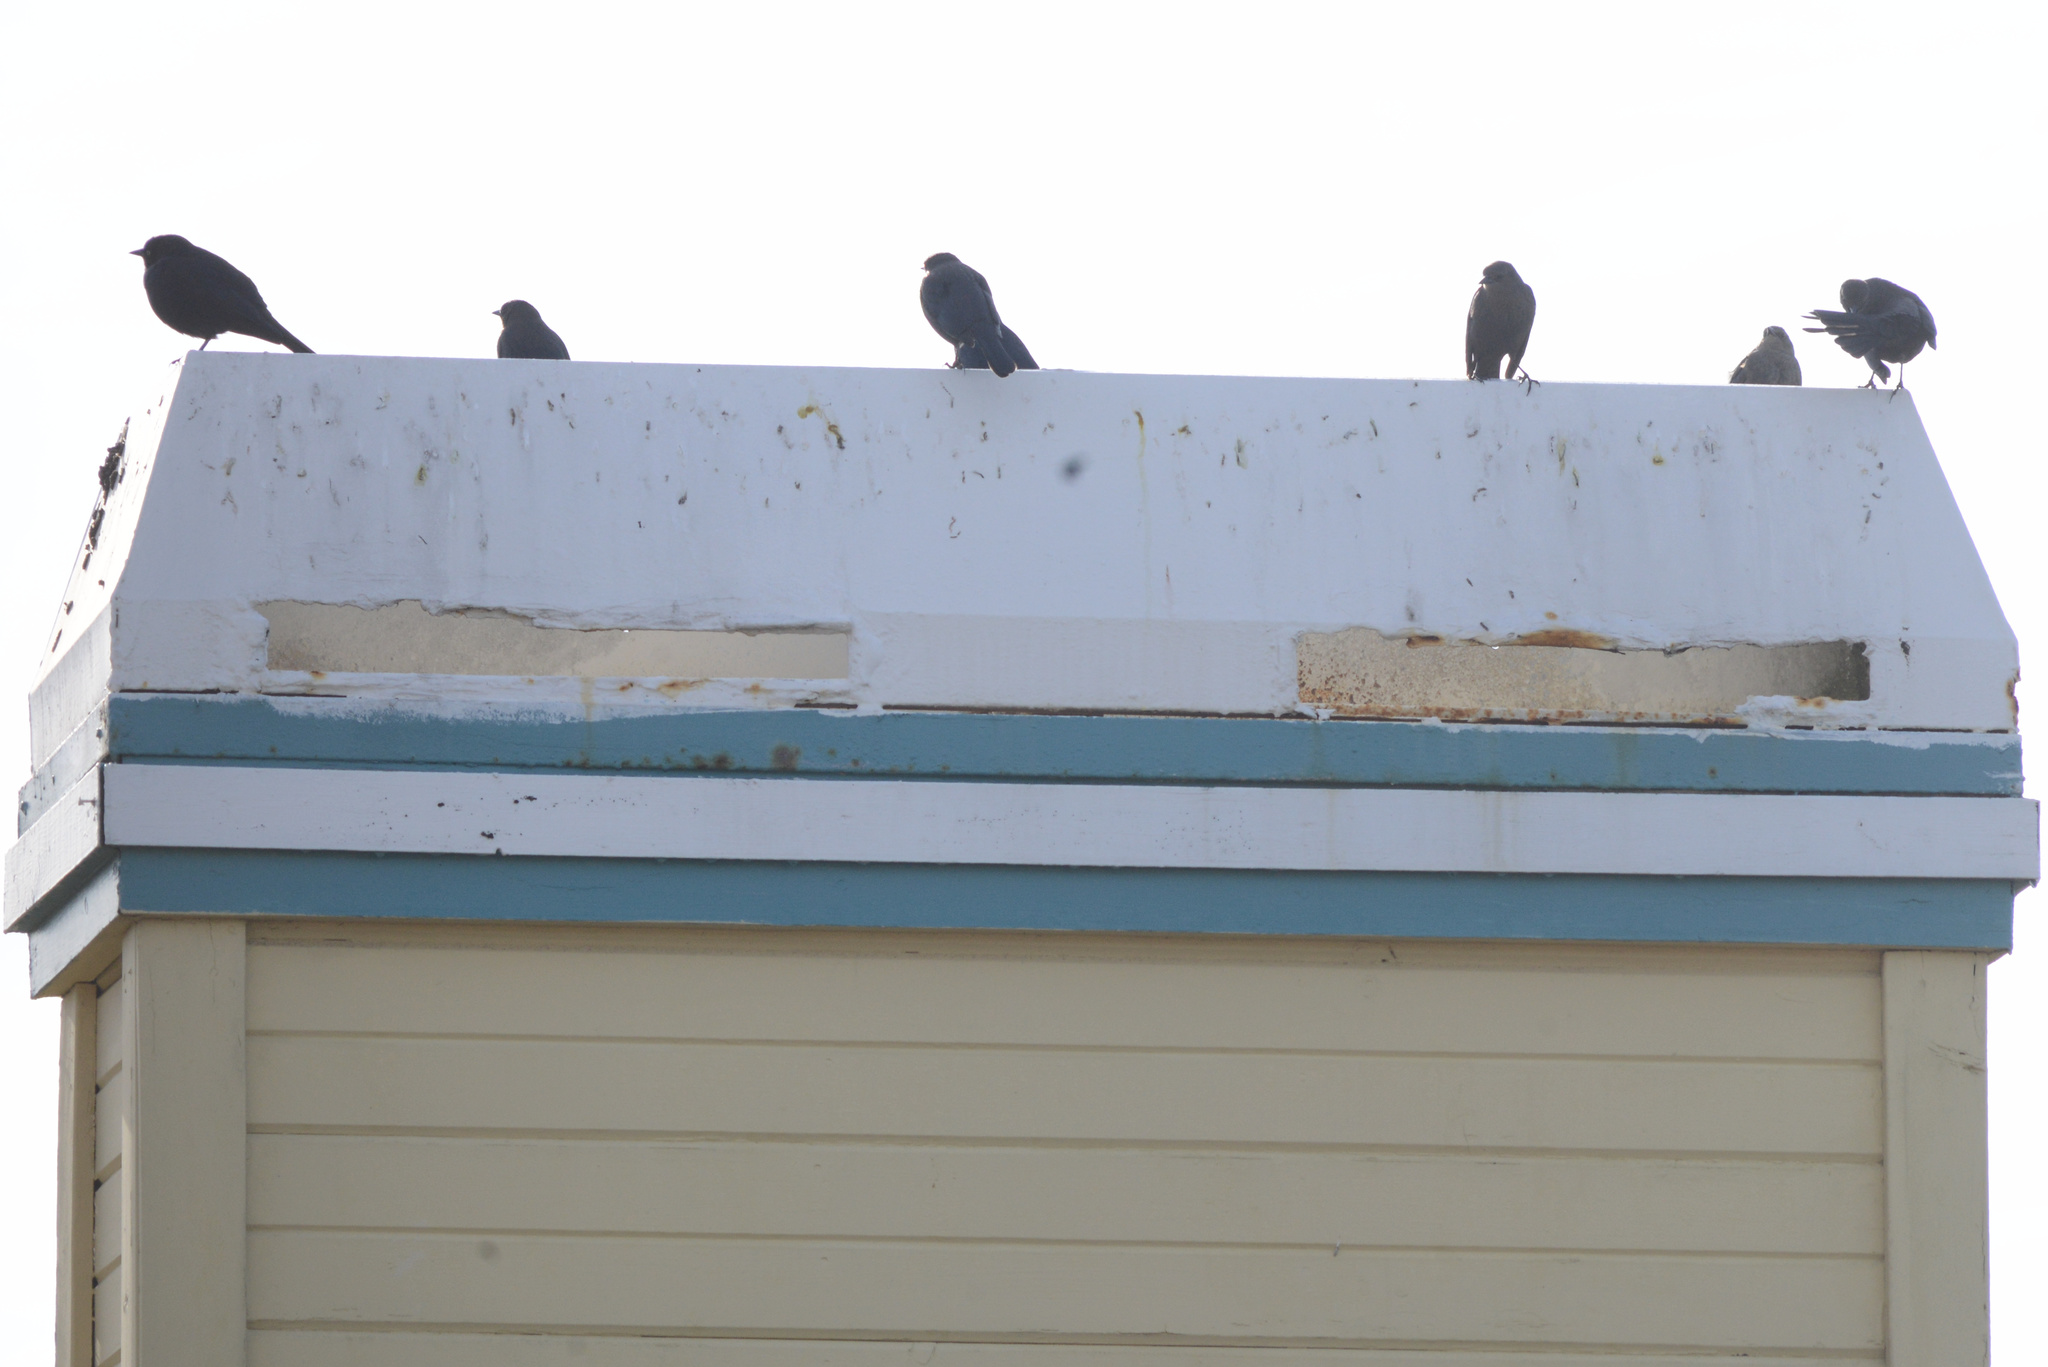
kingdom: Animalia
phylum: Chordata
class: Aves
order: Passeriformes
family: Icteridae
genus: Euphagus
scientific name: Euphagus cyanocephalus
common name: Brewer's blackbird
